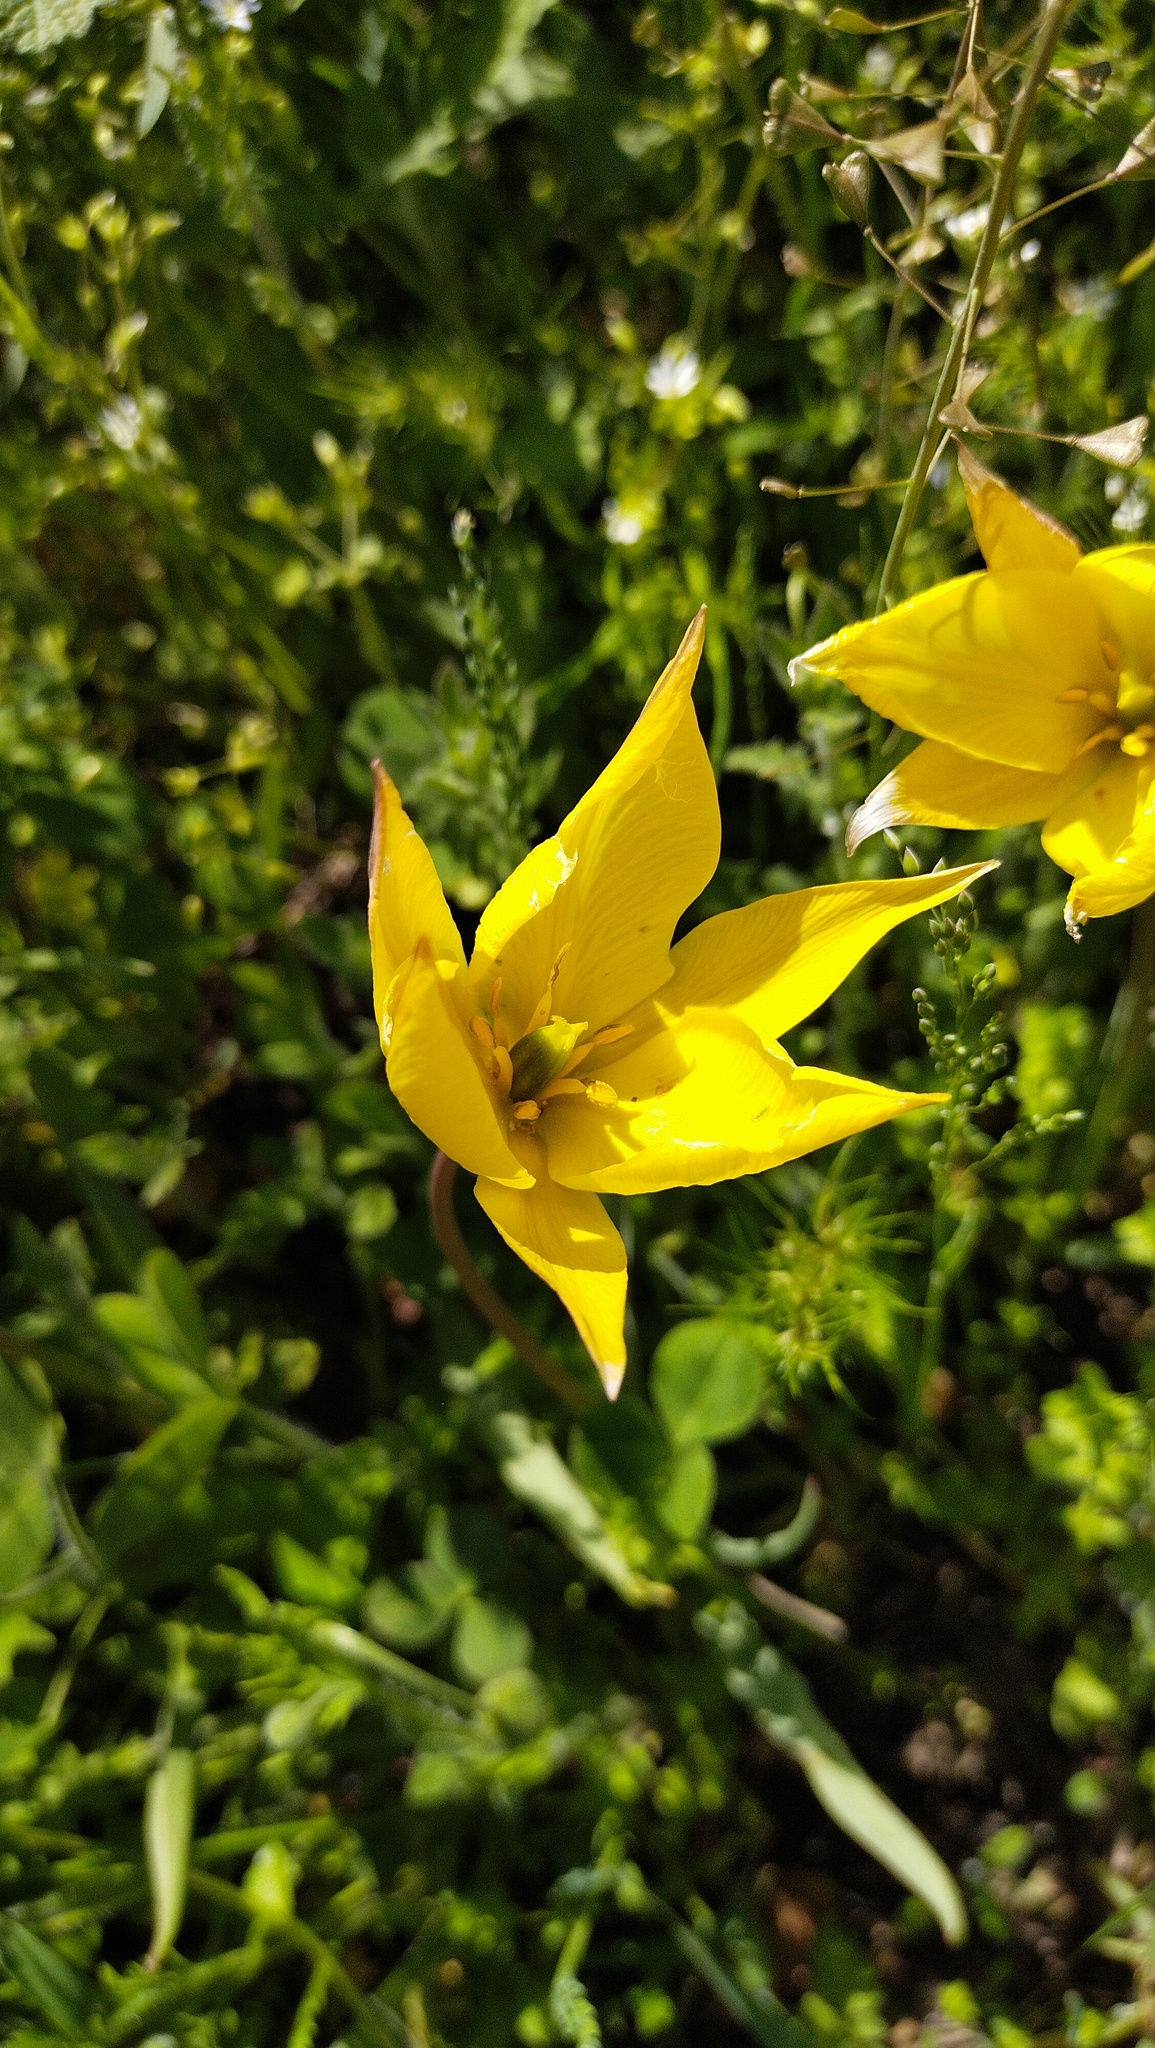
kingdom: Plantae
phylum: Tracheophyta
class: Liliopsida
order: Liliales
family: Liliaceae
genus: Tulipa
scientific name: Tulipa sylvestris
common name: Wild tulip
